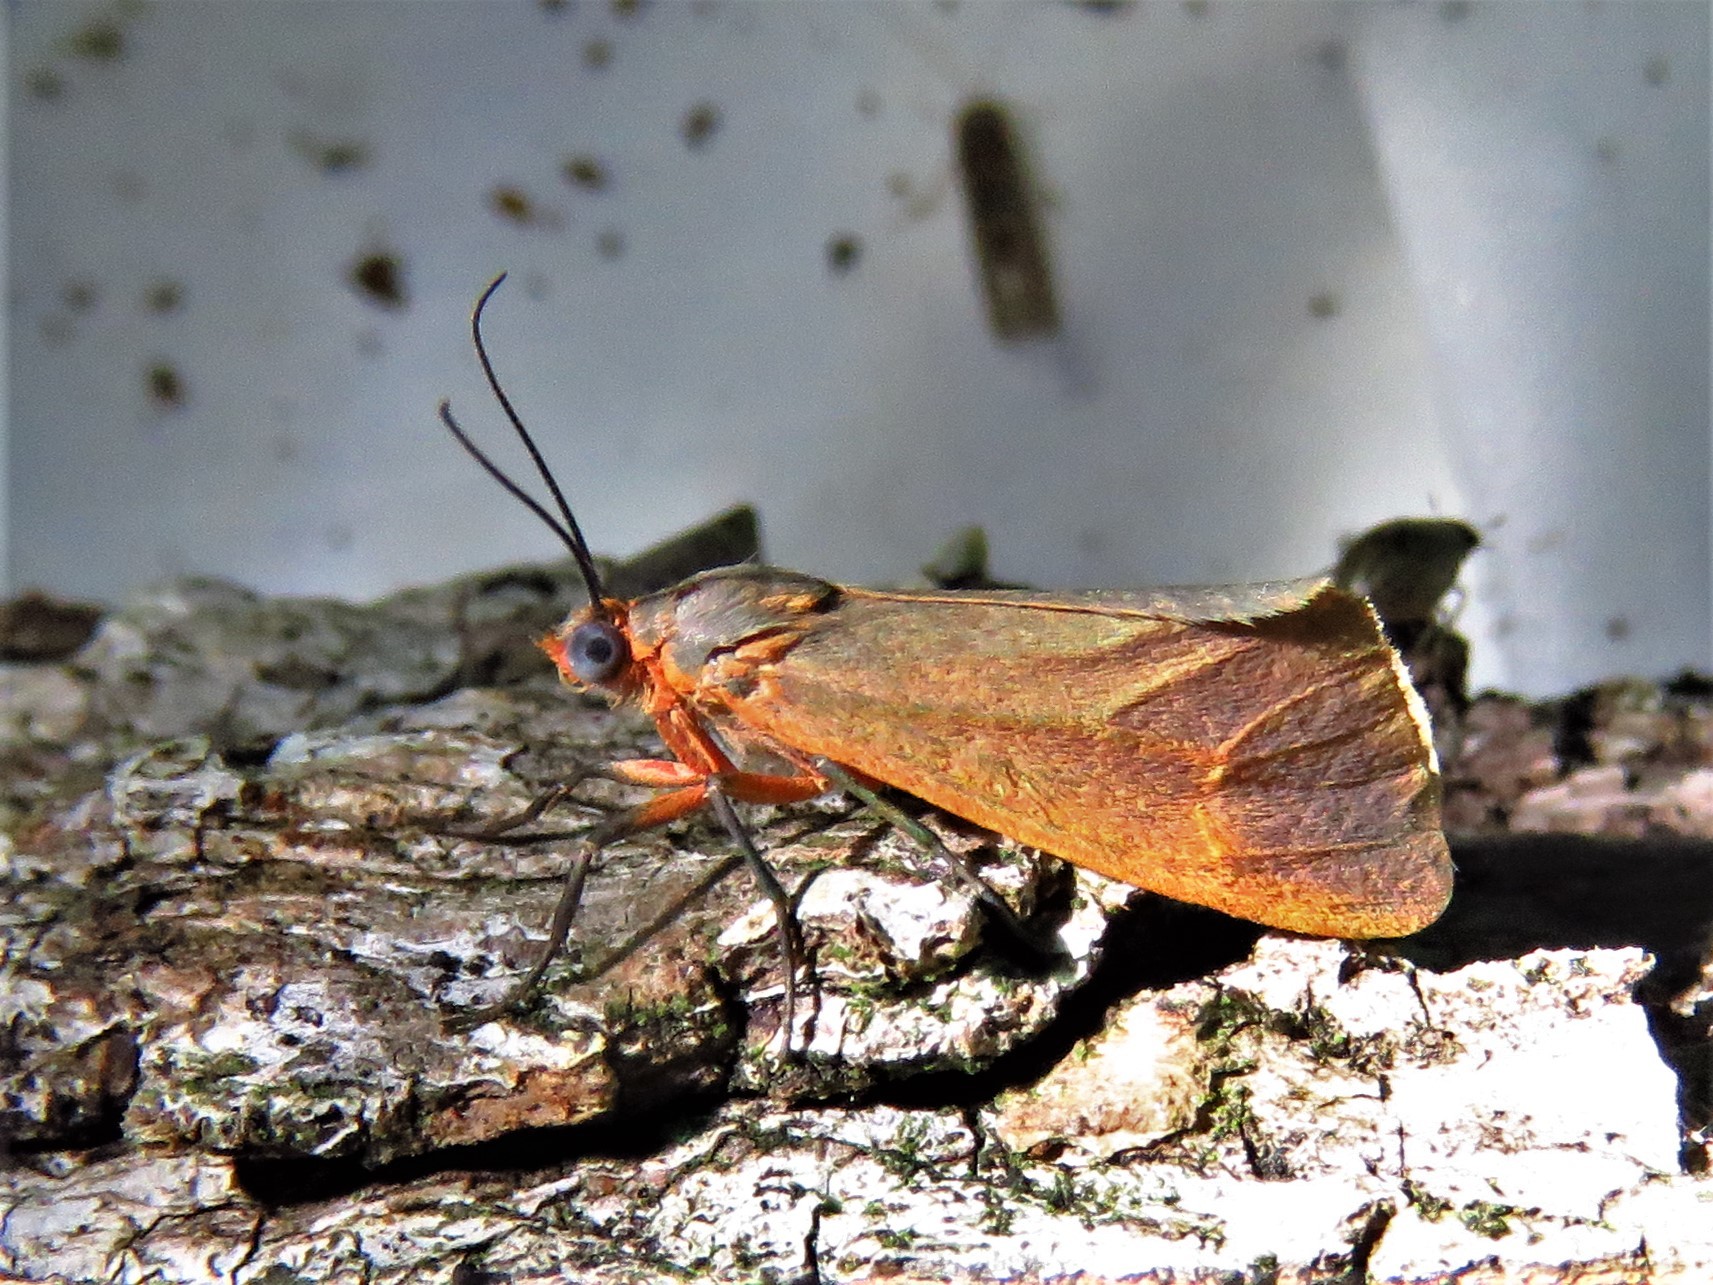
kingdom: Animalia
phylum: Arthropoda
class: Insecta
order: Lepidoptera
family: Erebidae
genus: Virbia
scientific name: Virbia costata
